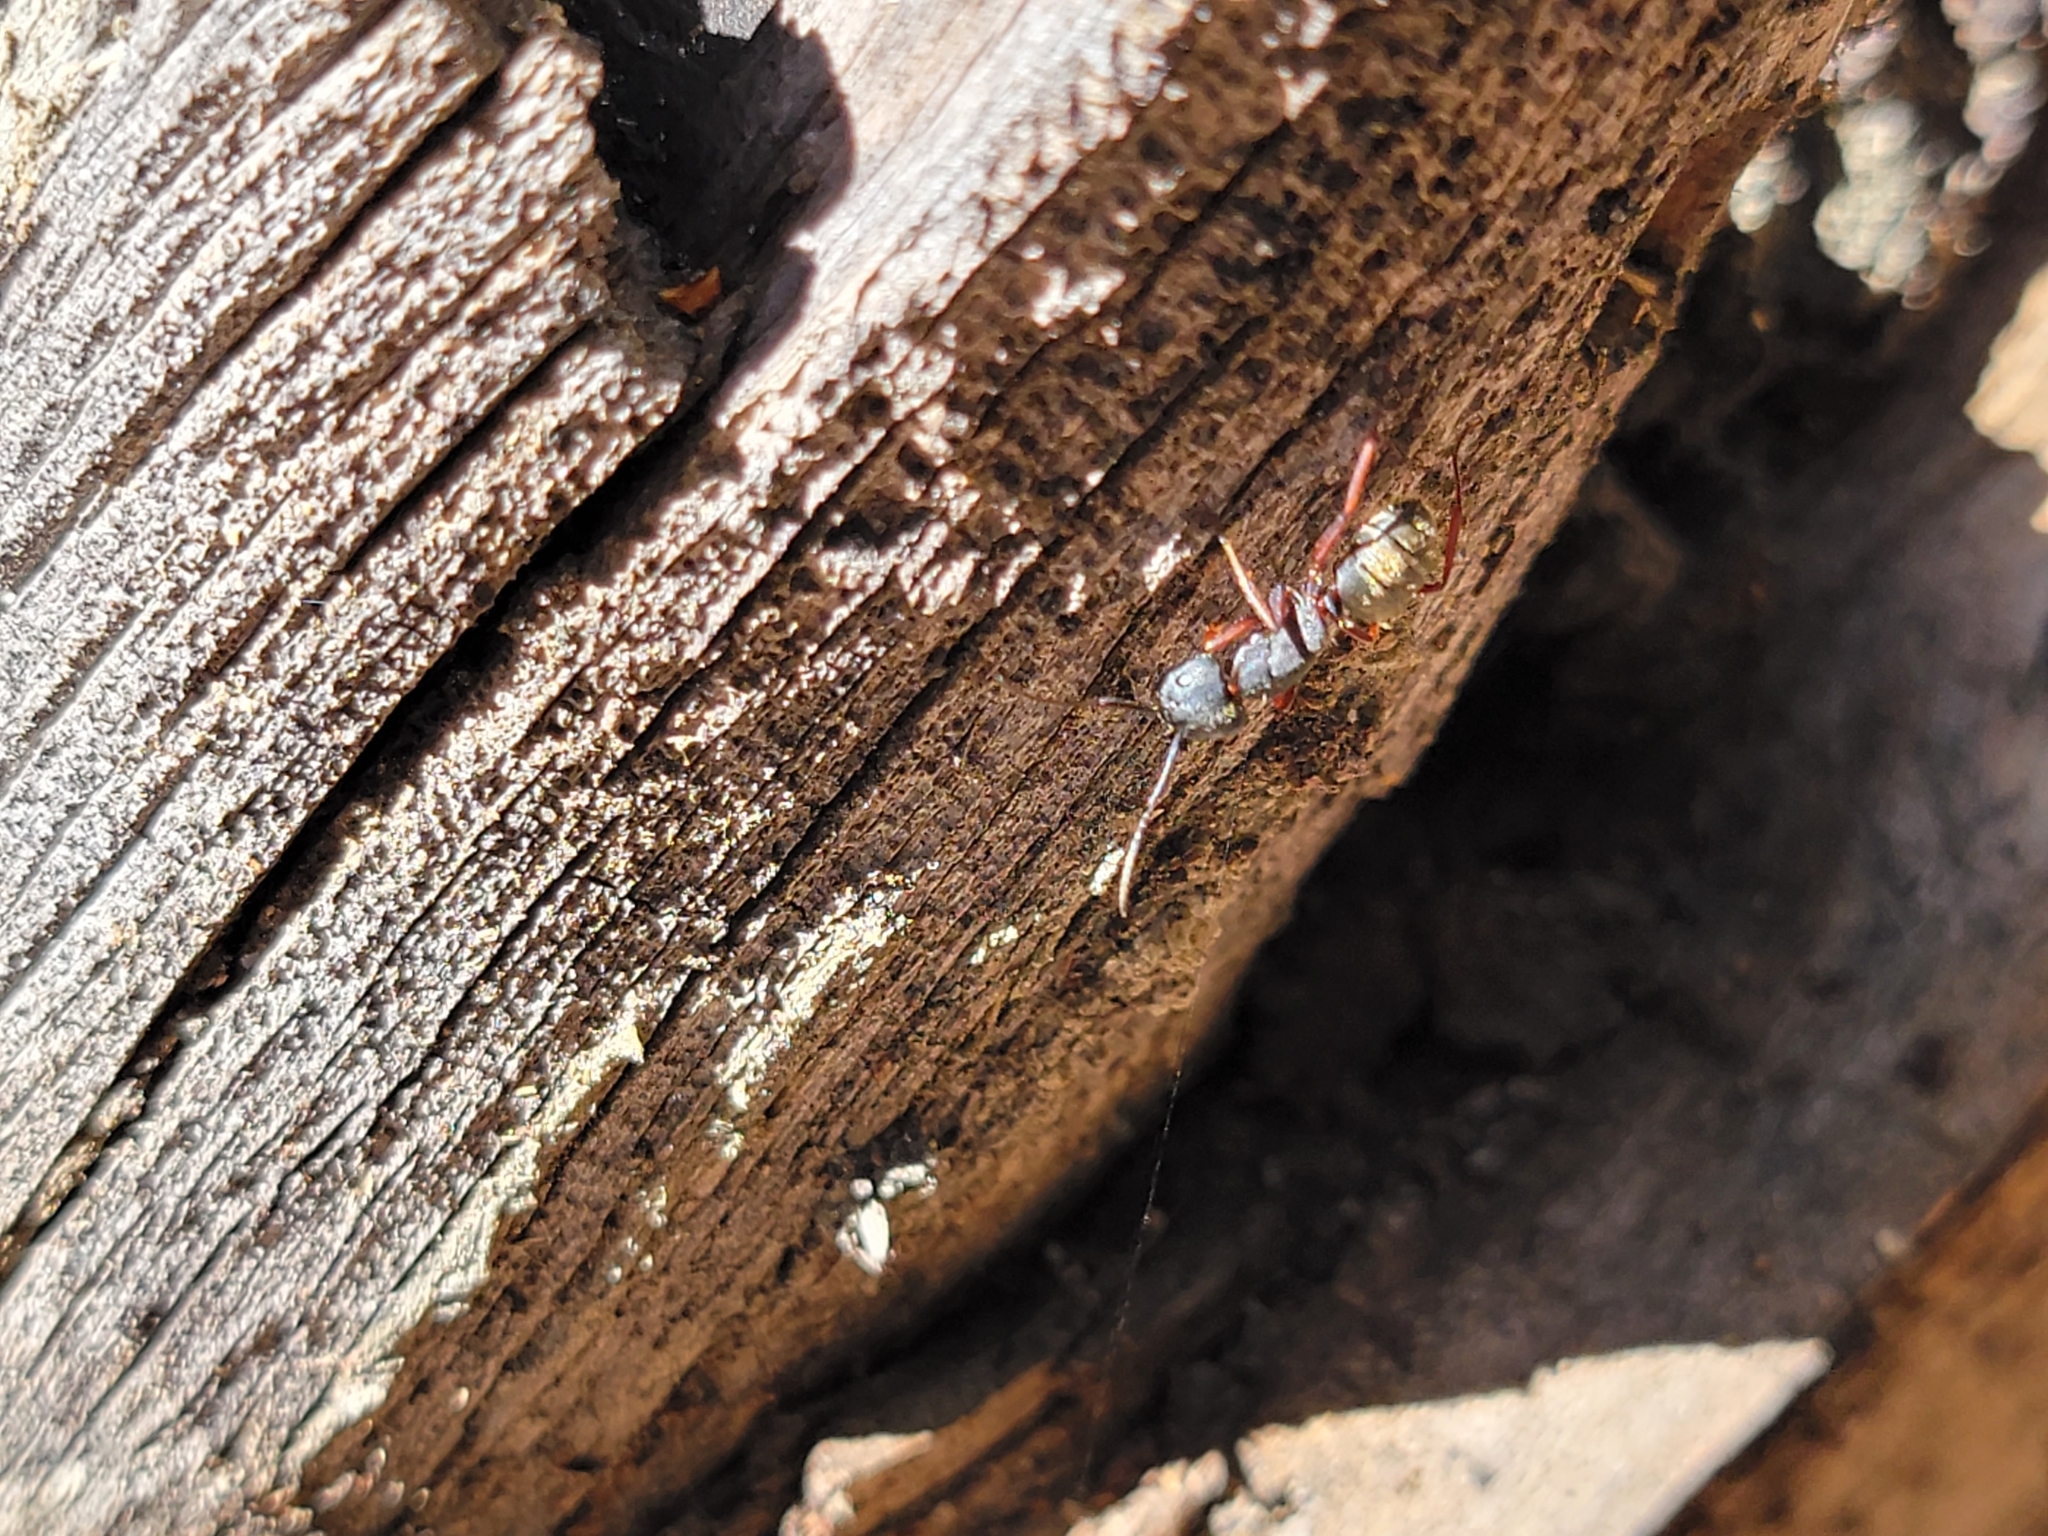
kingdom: Animalia
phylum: Arthropoda
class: Insecta
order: Hymenoptera
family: Formicidae
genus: Camponotus
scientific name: Camponotus modoc
